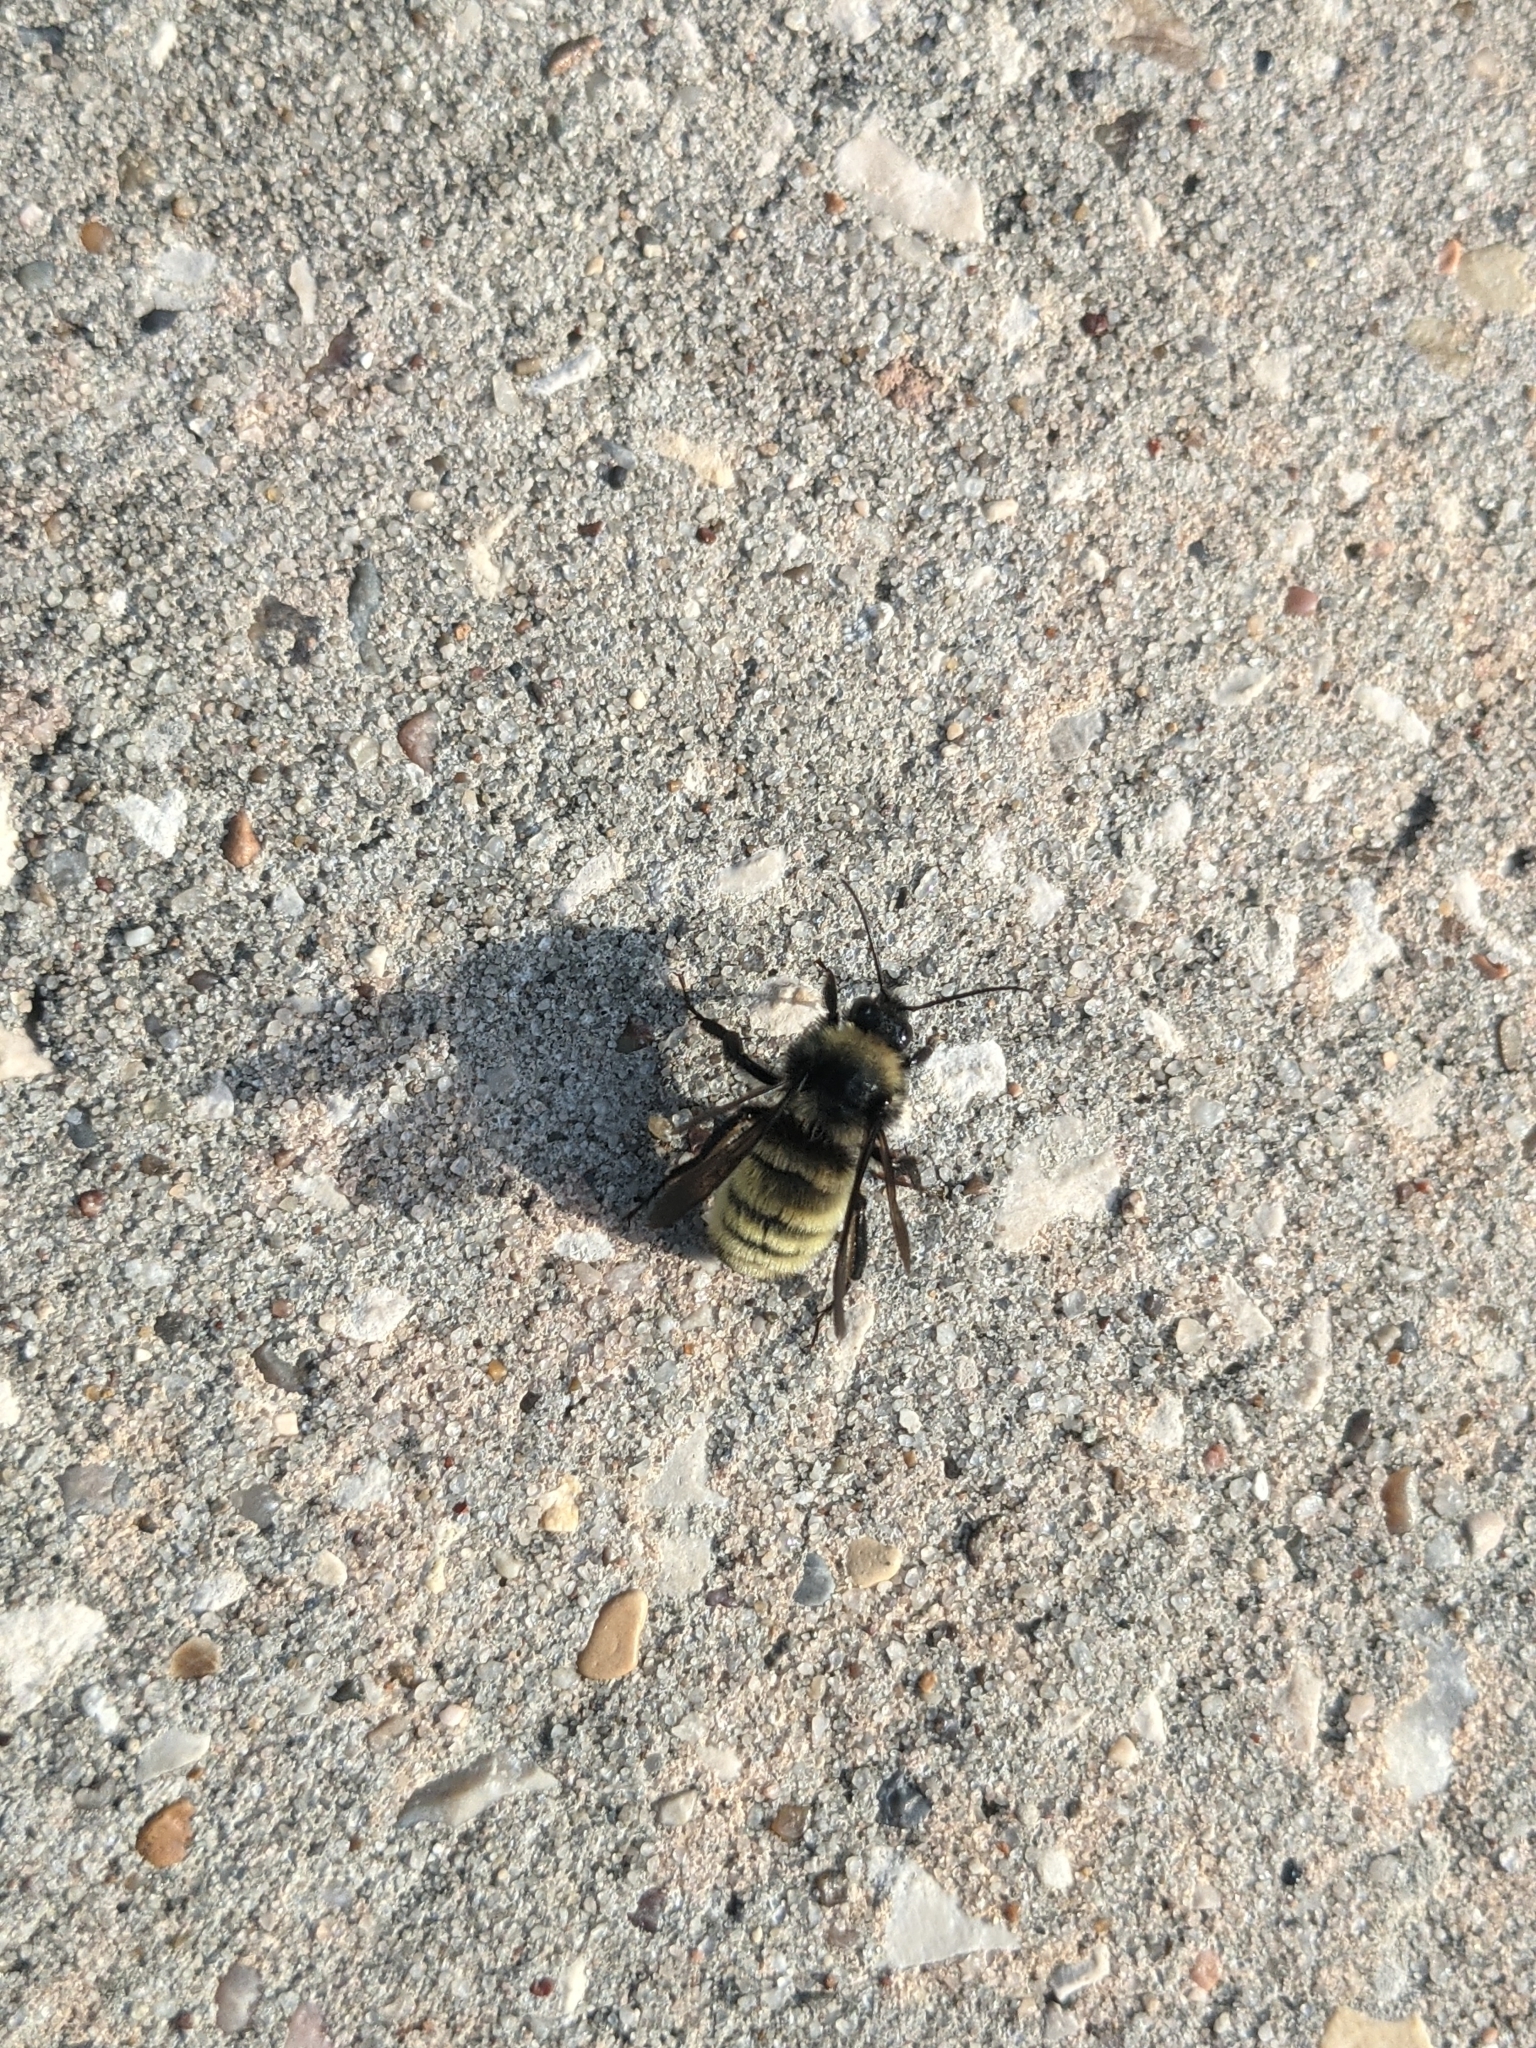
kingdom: Animalia
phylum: Arthropoda
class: Insecta
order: Hymenoptera
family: Apidae
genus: Bombus
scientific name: Bombus pensylvanicus
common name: Bumble bee
